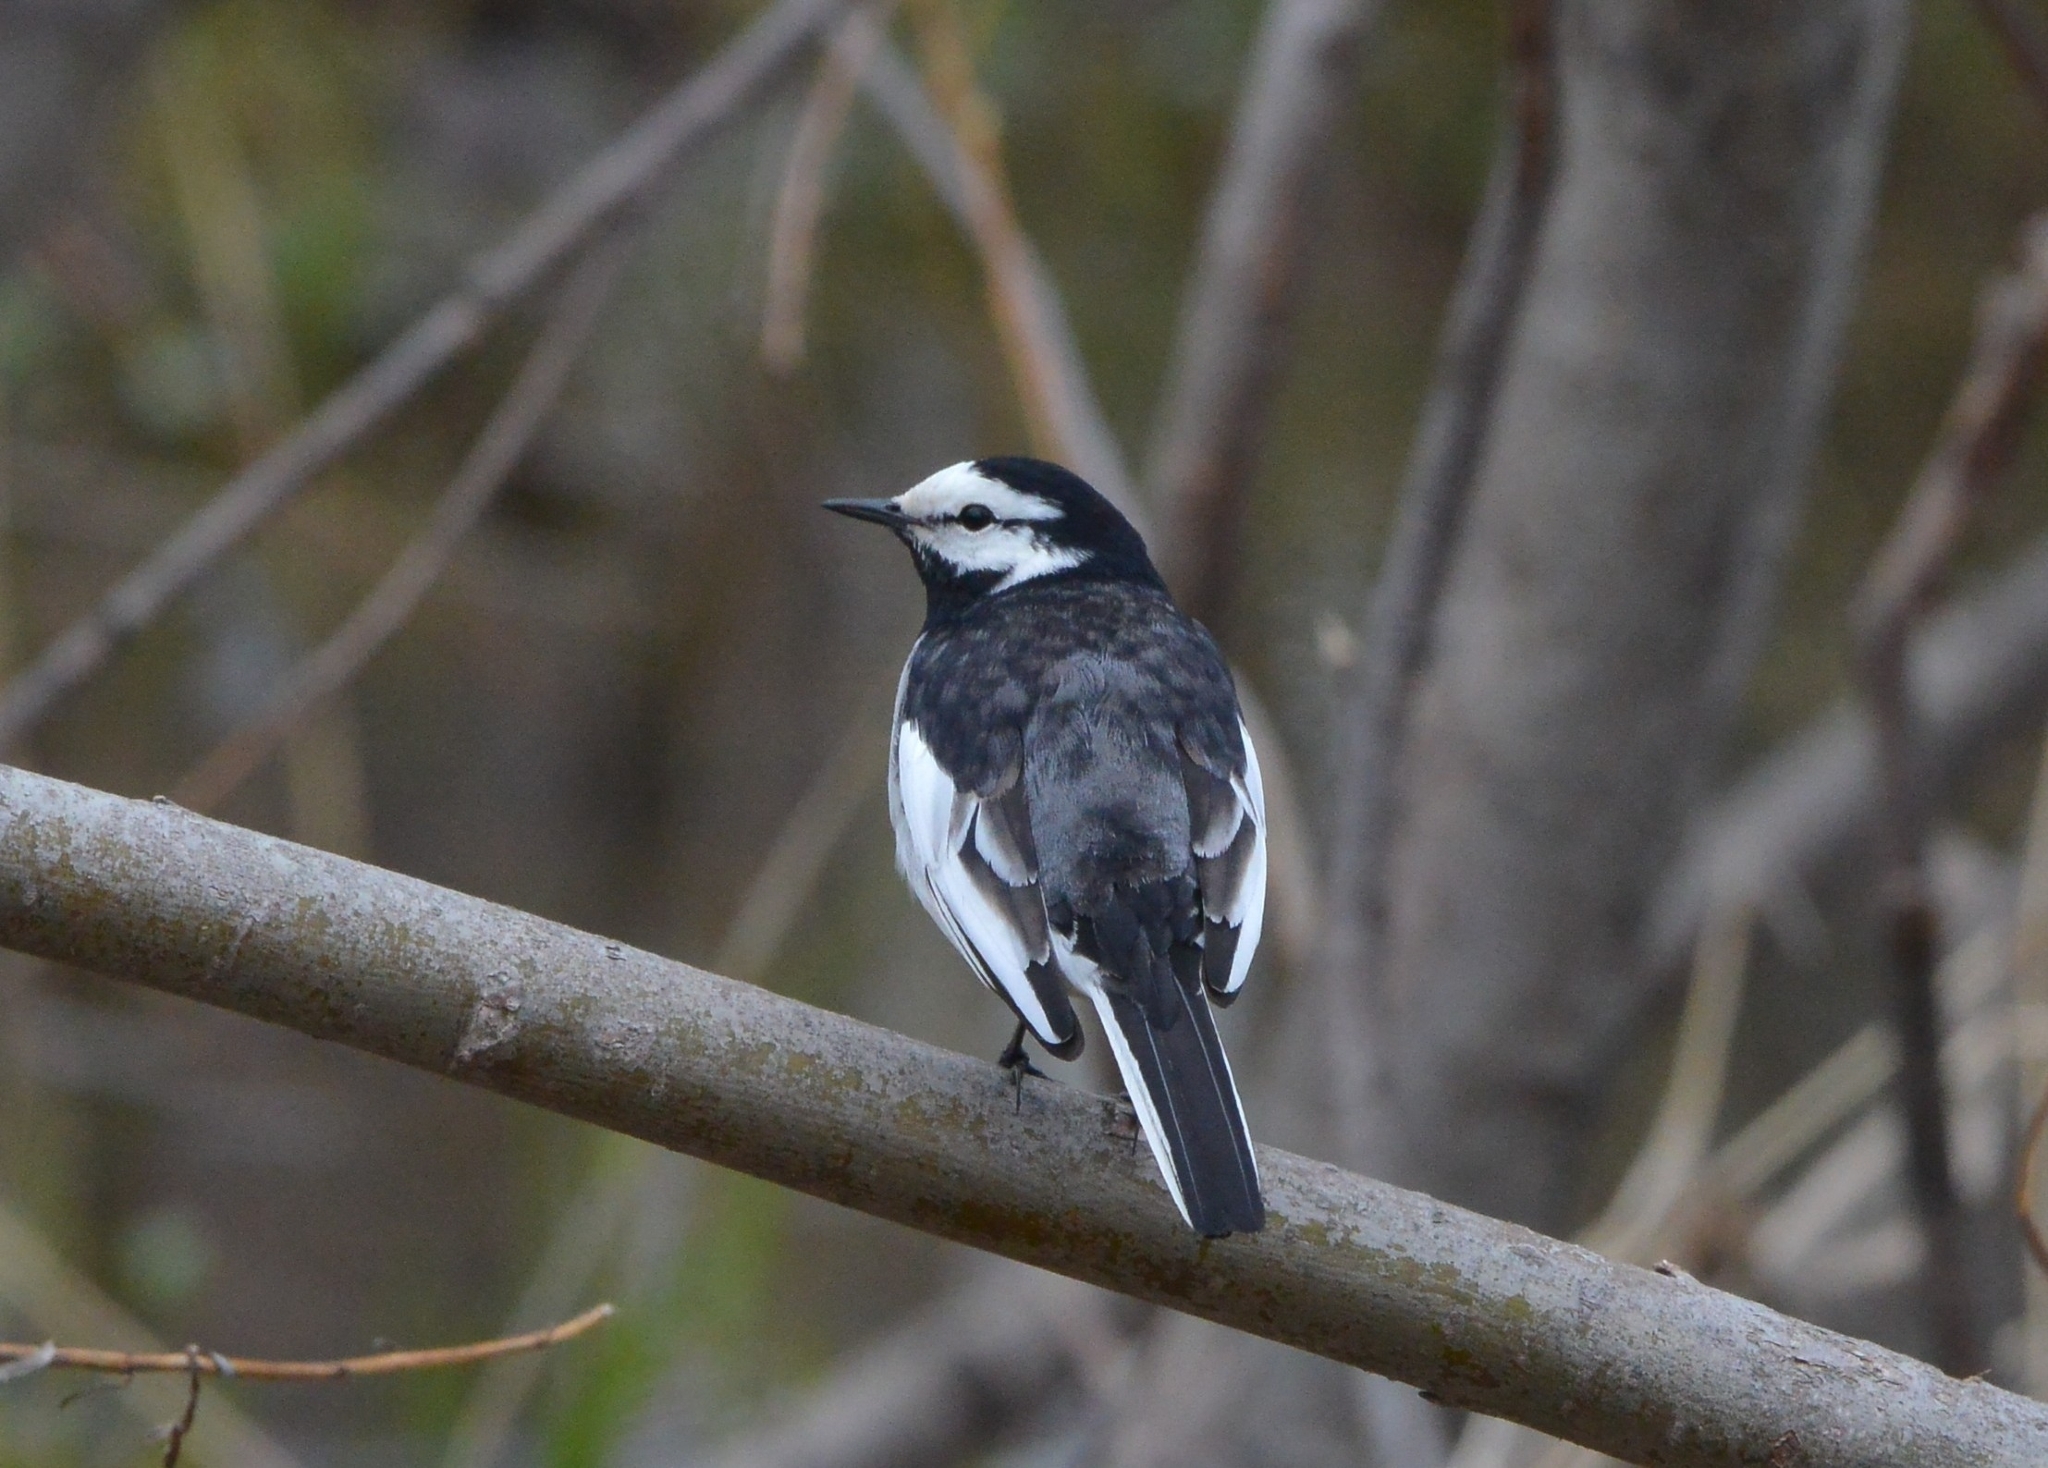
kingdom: Animalia
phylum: Chordata
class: Aves
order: Passeriformes
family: Motacillidae
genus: Motacilla
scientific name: Motacilla alba
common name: White wagtail
